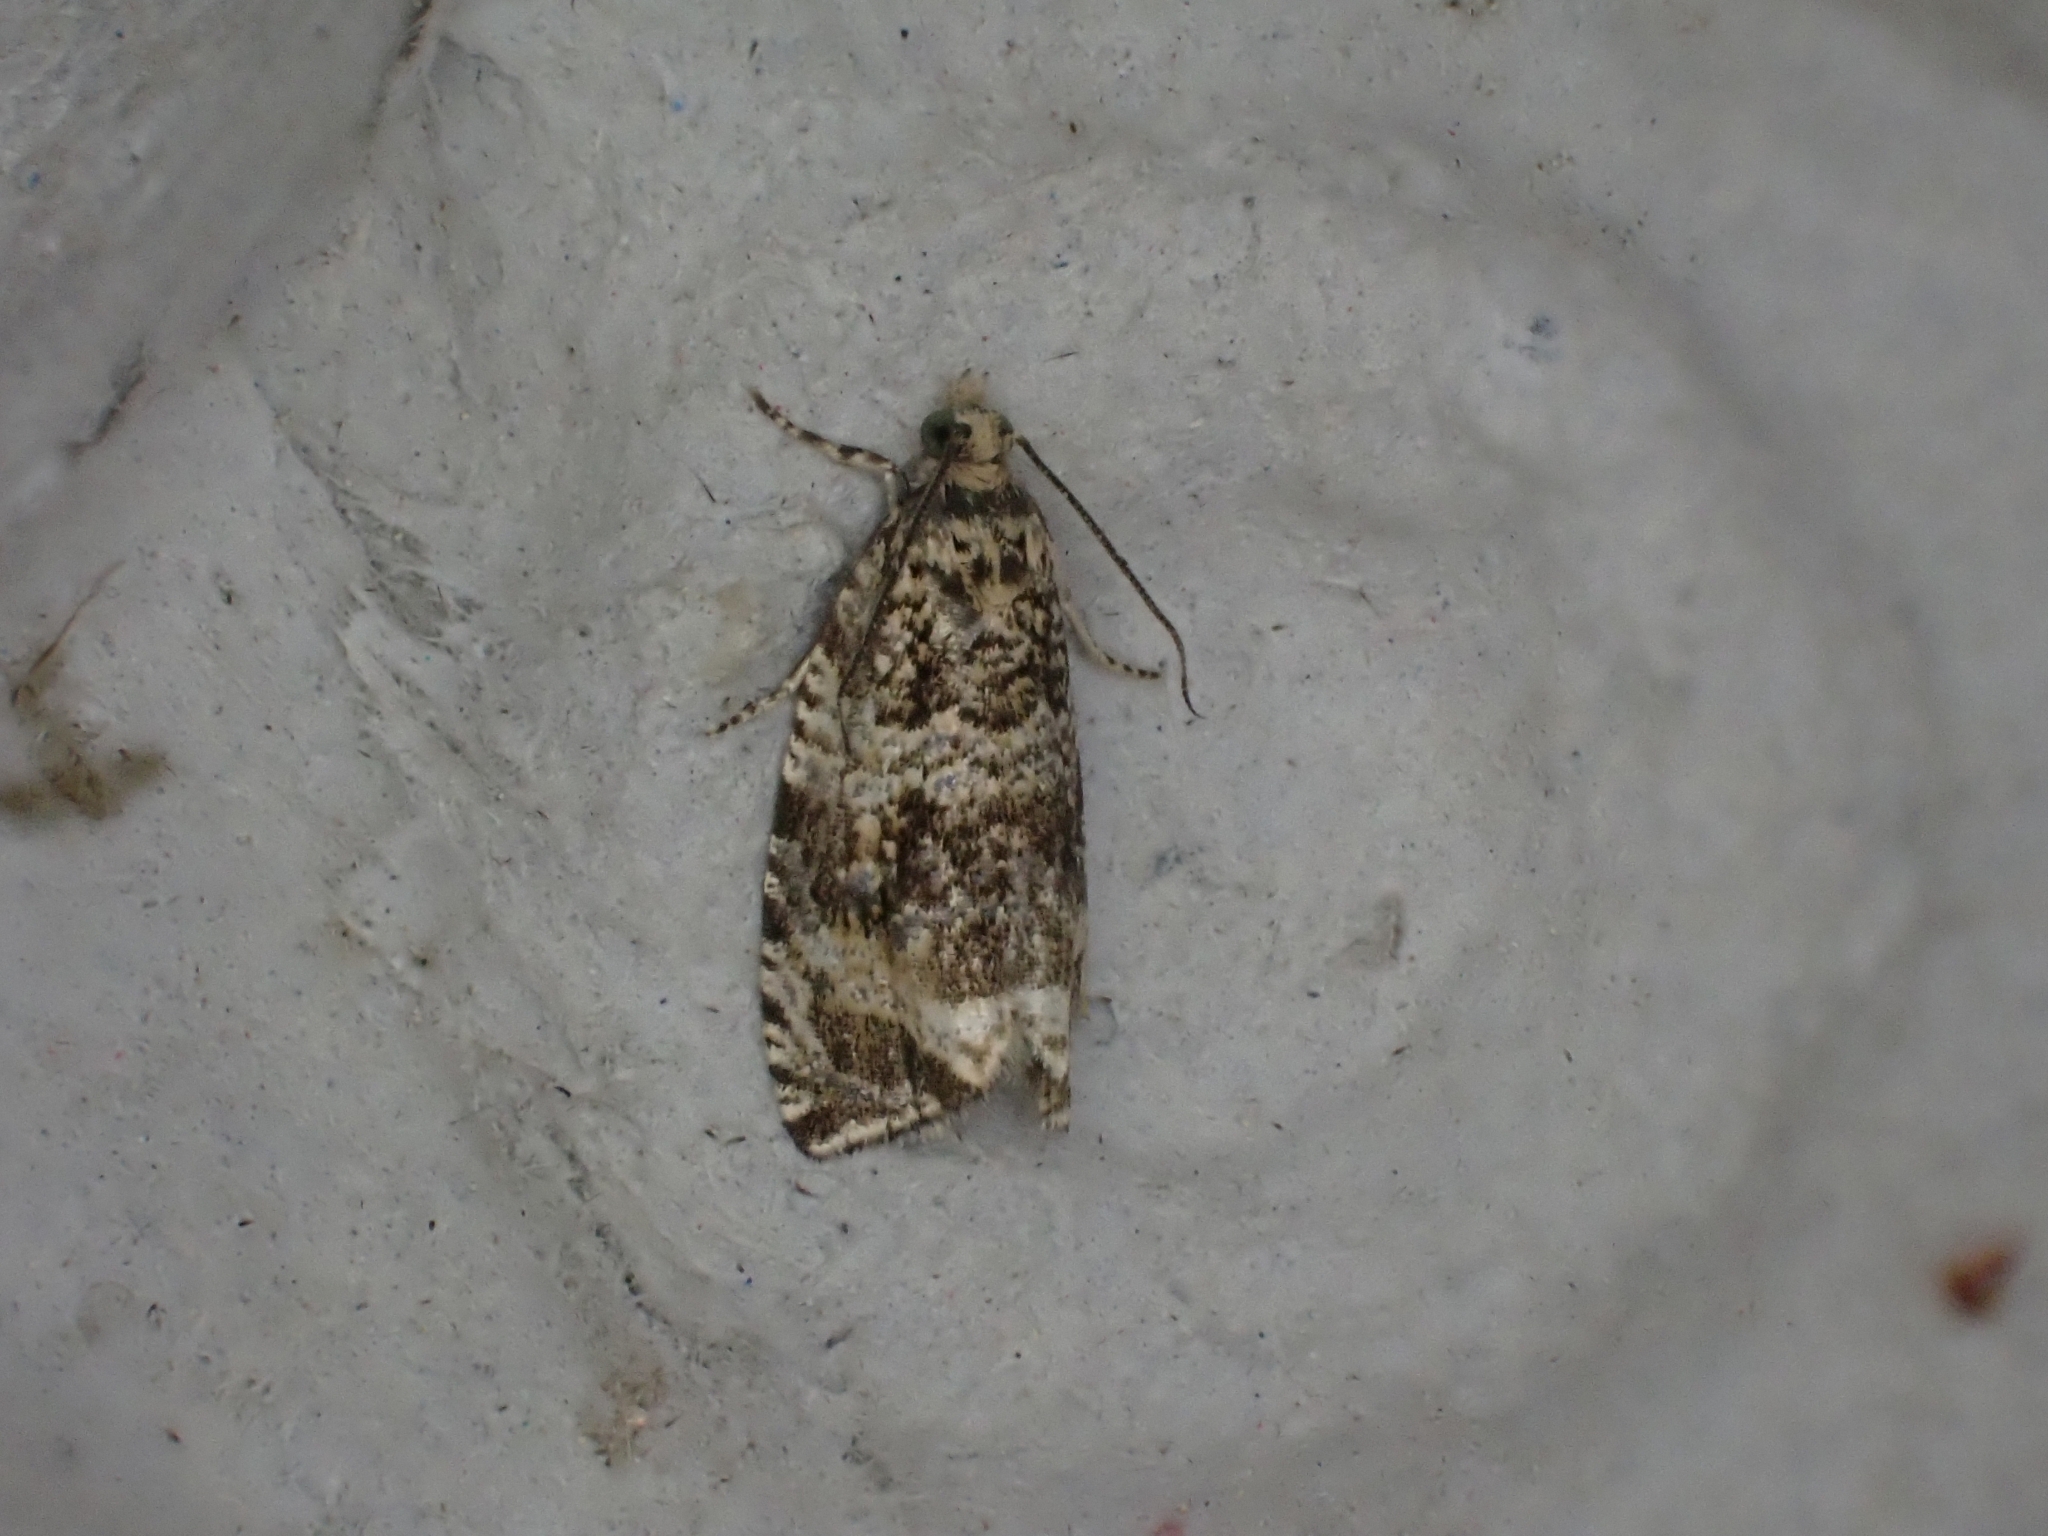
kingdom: Animalia
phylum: Arthropoda
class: Insecta
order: Lepidoptera
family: Tortricidae
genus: Syricoris
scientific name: Syricoris lacunana
